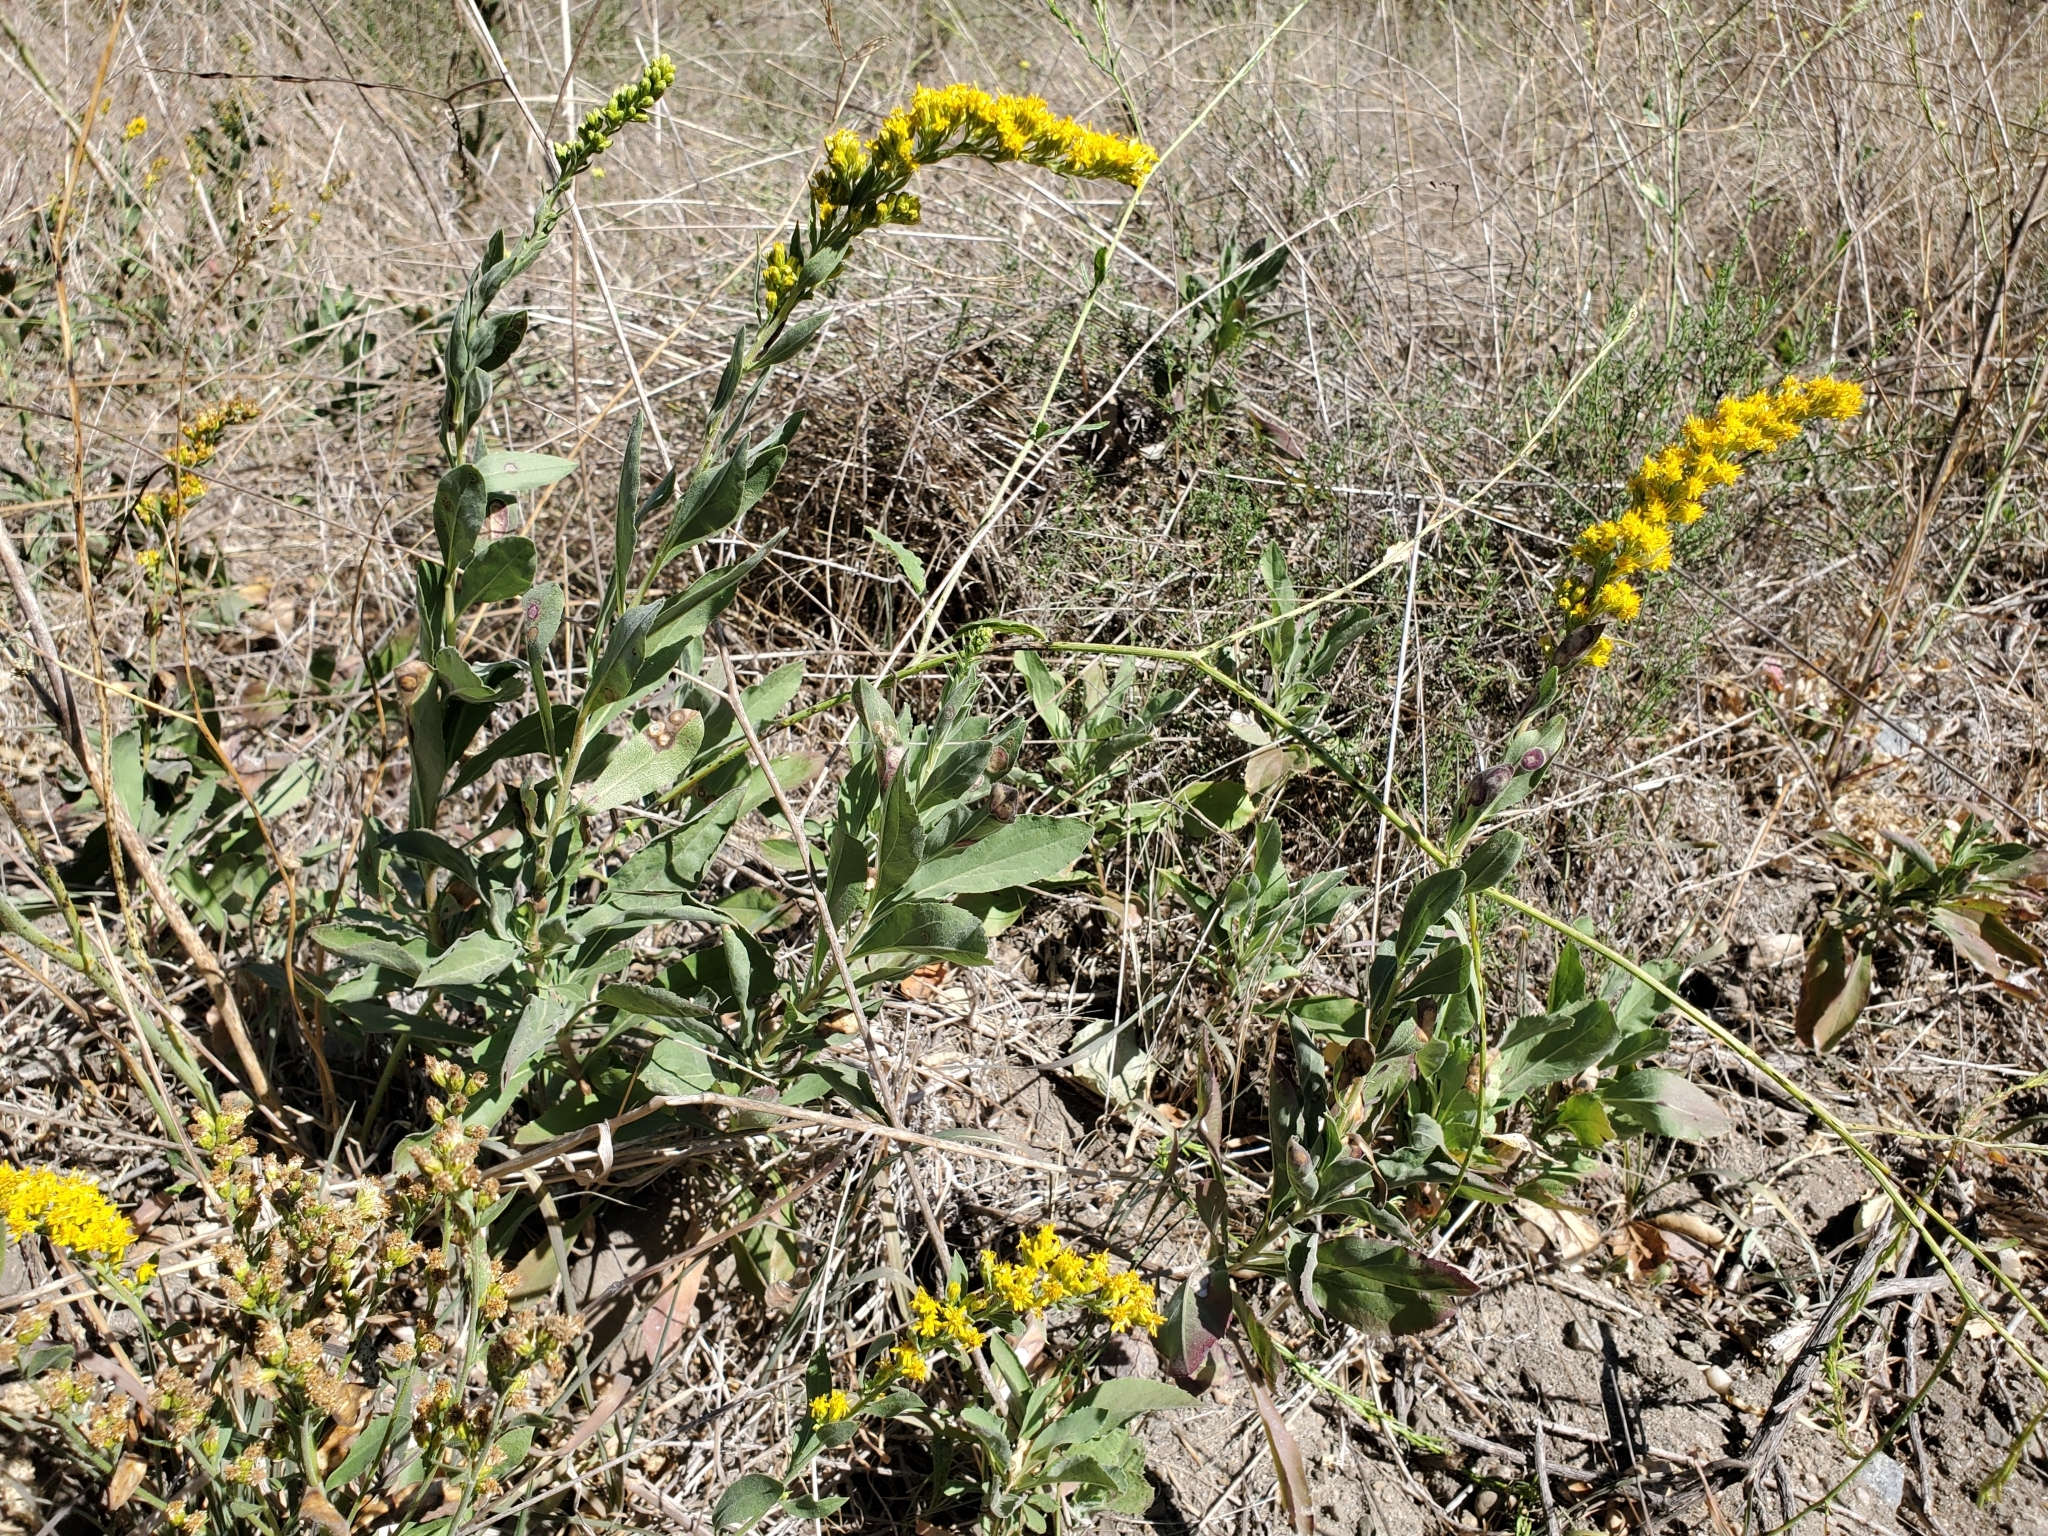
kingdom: Plantae
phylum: Tracheophyta
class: Magnoliopsida
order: Asterales
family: Asteraceae
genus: Solidago
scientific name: Solidago californica
